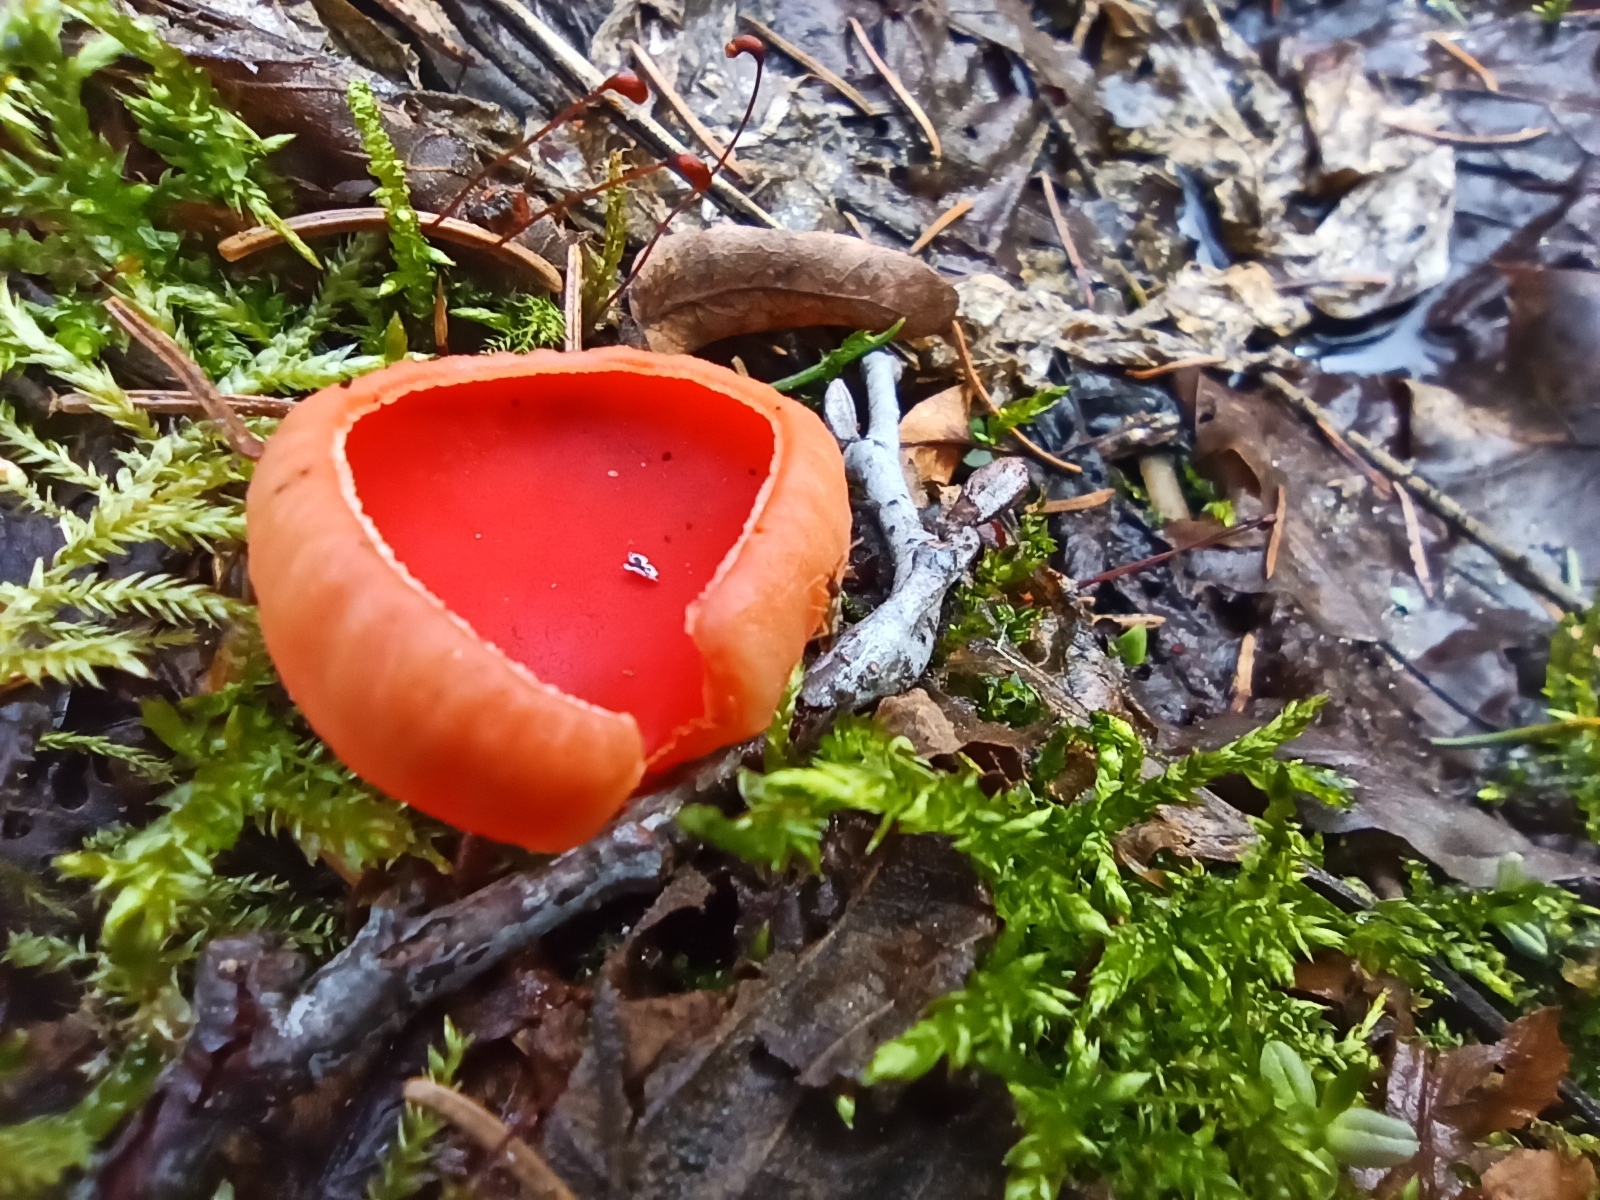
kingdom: Fungi
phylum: Ascomycota
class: Pezizomycetes
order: Pezizales
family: Sarcoscyphaceae
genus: Sarcoscypha
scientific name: Sarcoscypha austriaca
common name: Scarlet elfcup
